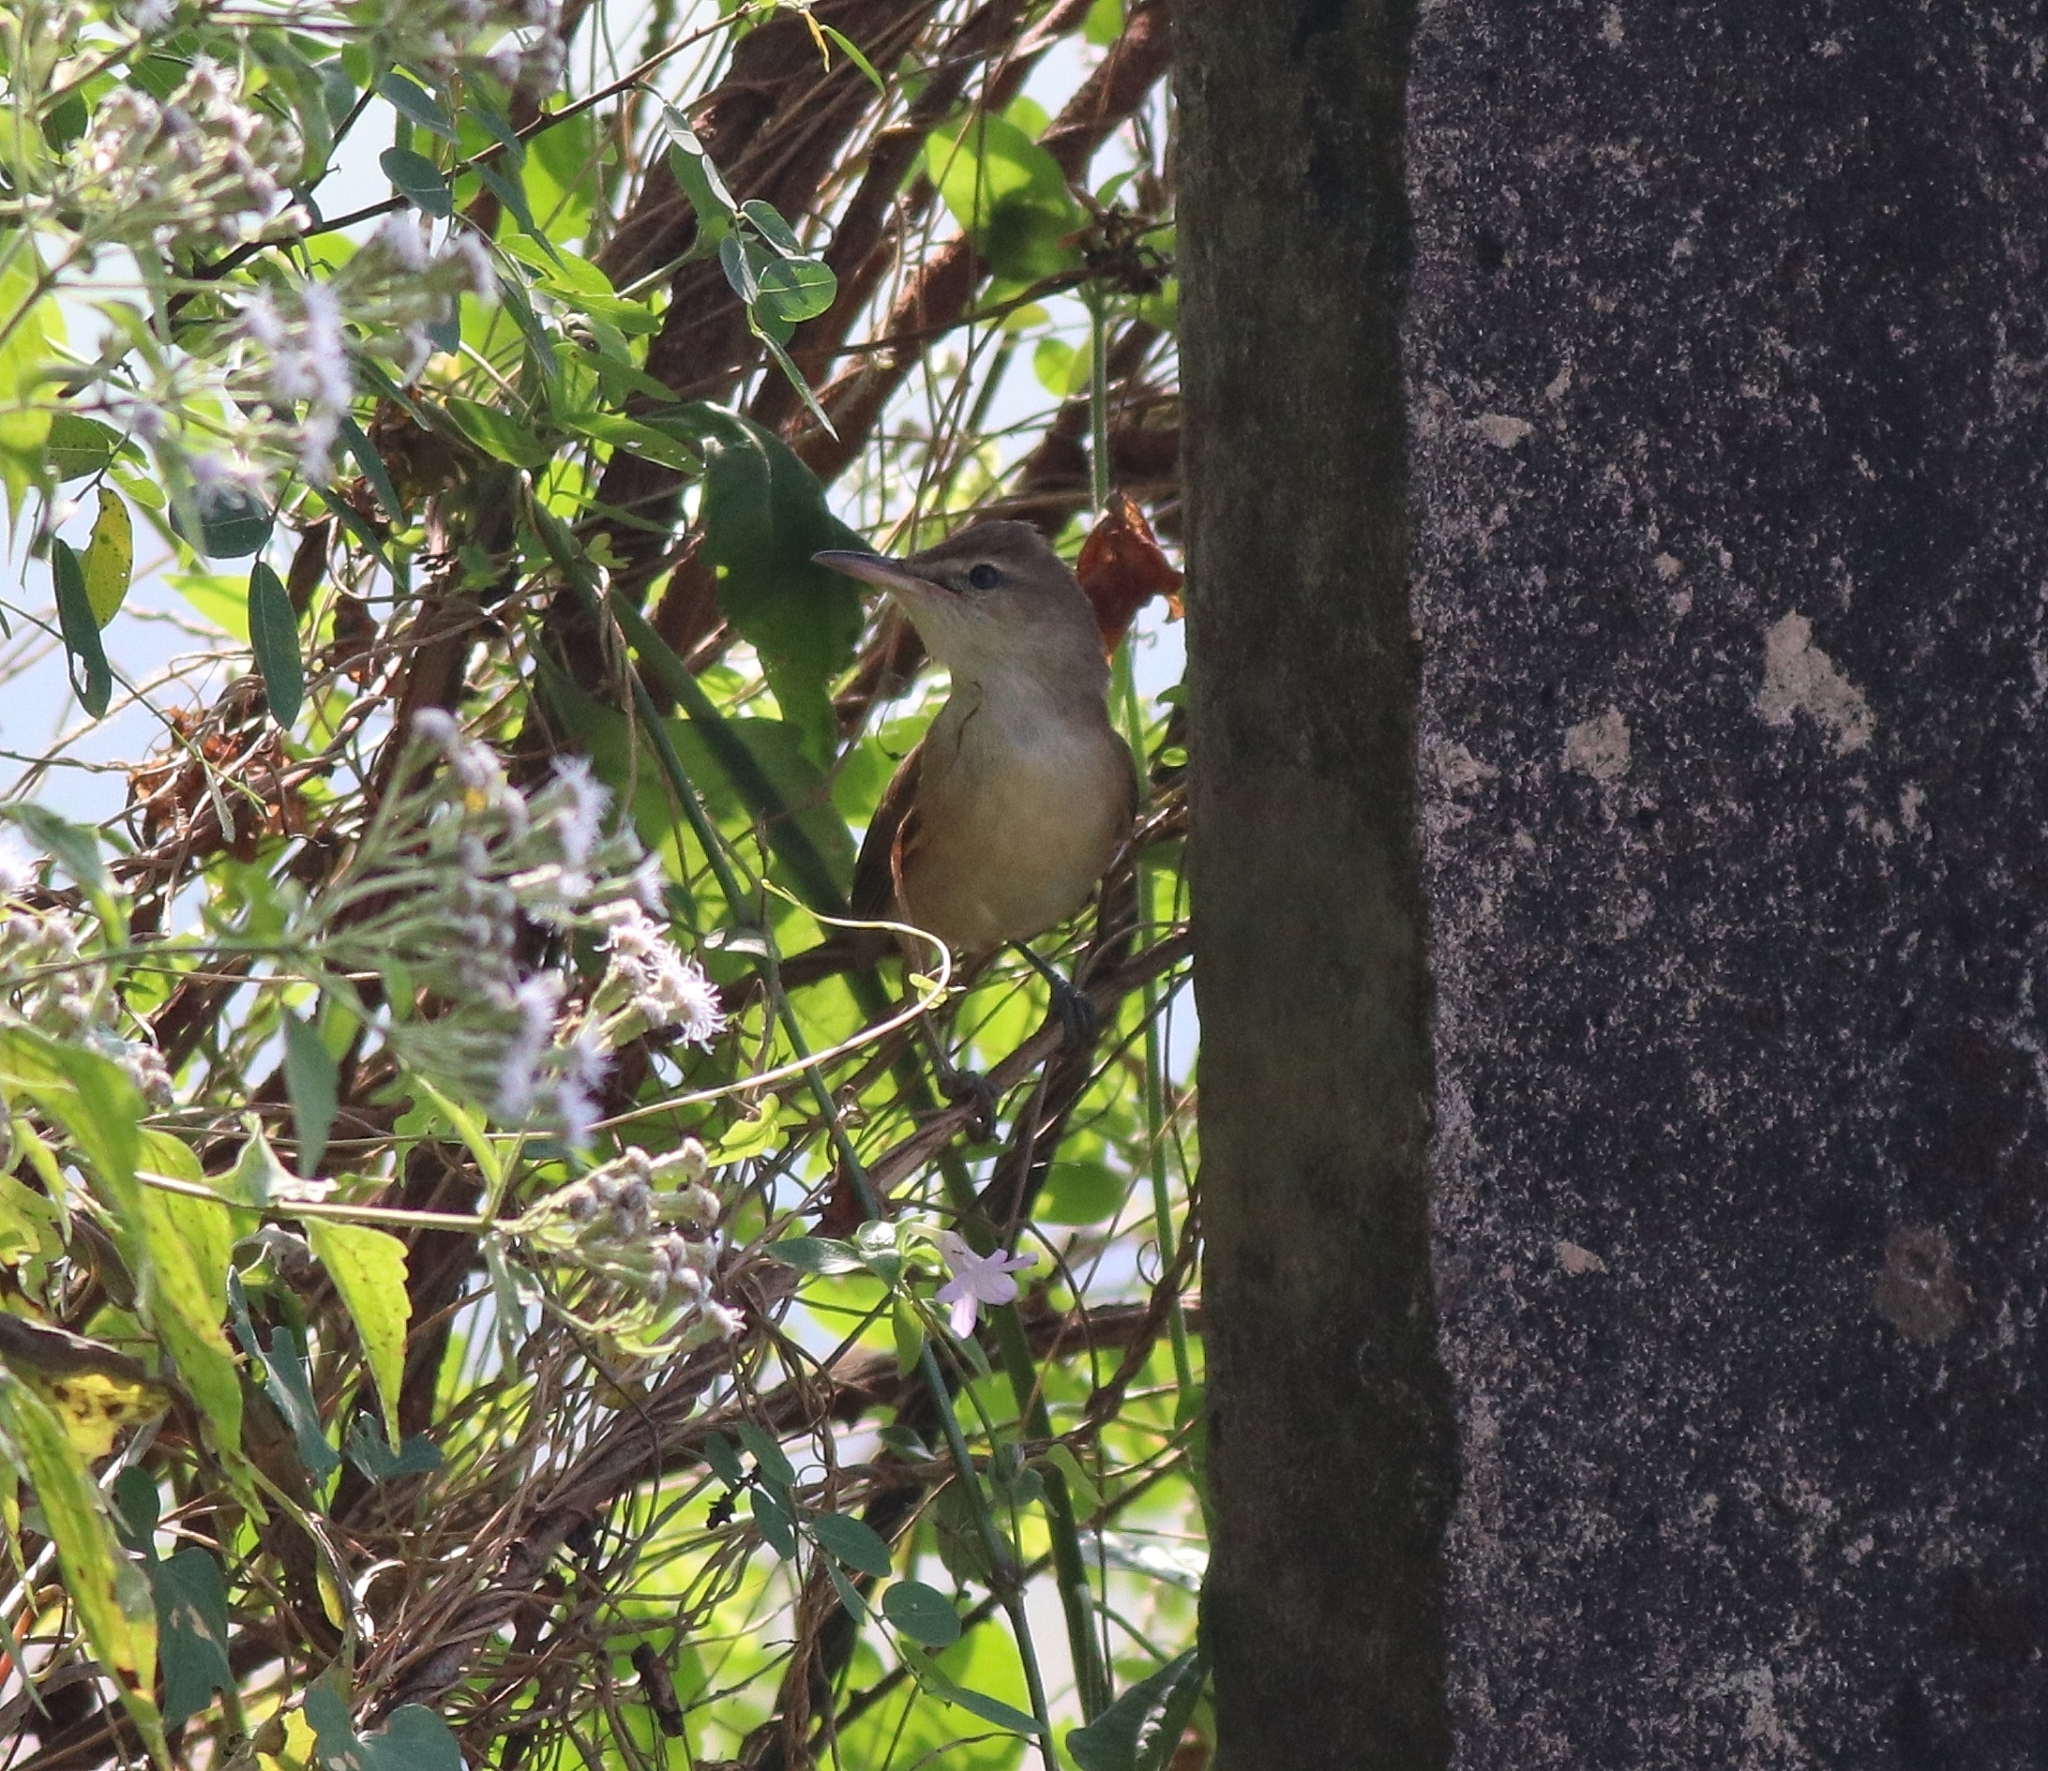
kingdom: Animalia
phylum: Chordata
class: Aves
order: Passeriformes
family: Acrocephalidae
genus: Acrocephalus
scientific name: Acrocephalus stentoreus
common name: Clamorous reed warbler
